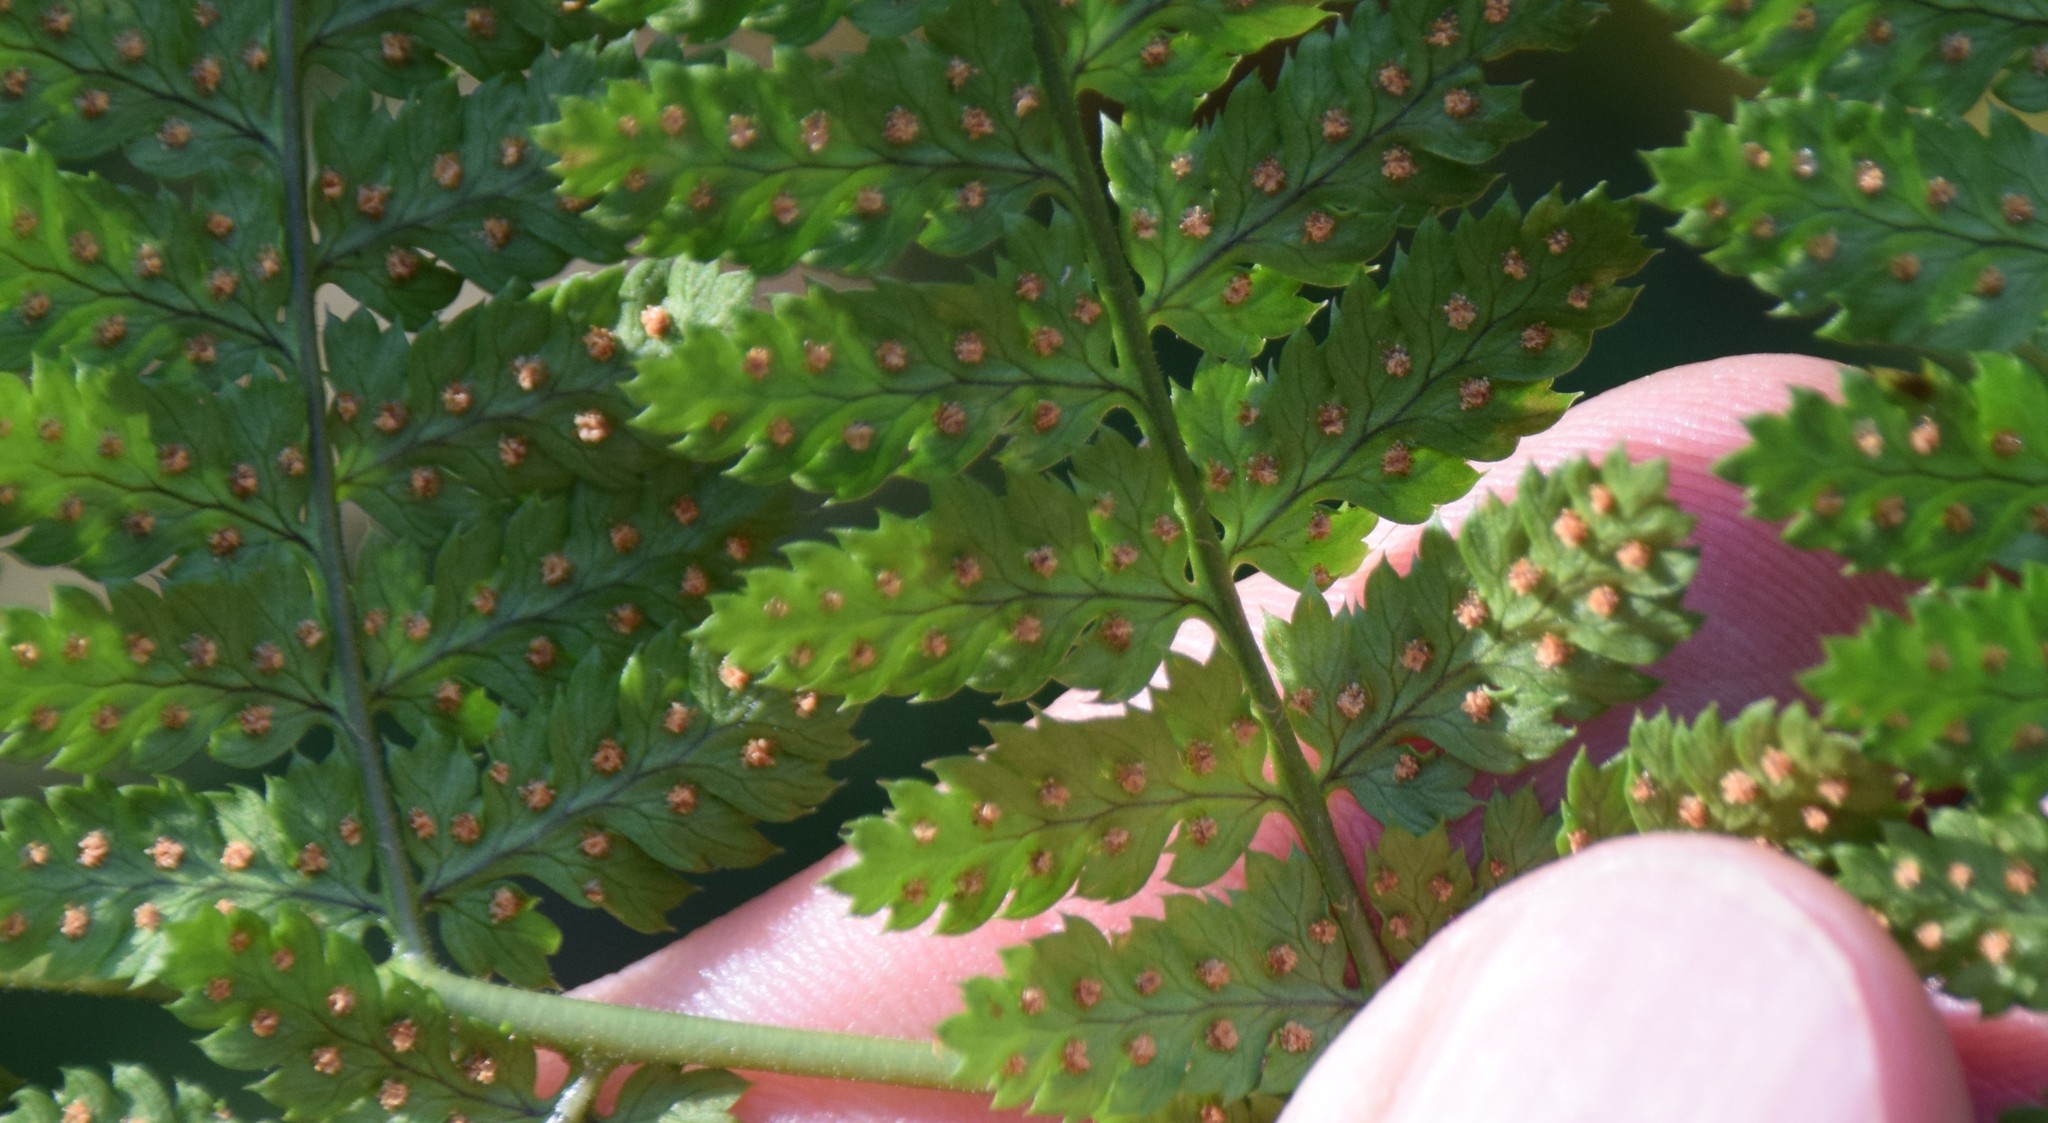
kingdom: Plantae
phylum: Tracheophyta
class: Polypodiopsida
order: Polypodiales
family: Dryopteridaceae
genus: Dryopteris
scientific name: Dryopteris intermedia
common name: Evergreen wood fern
